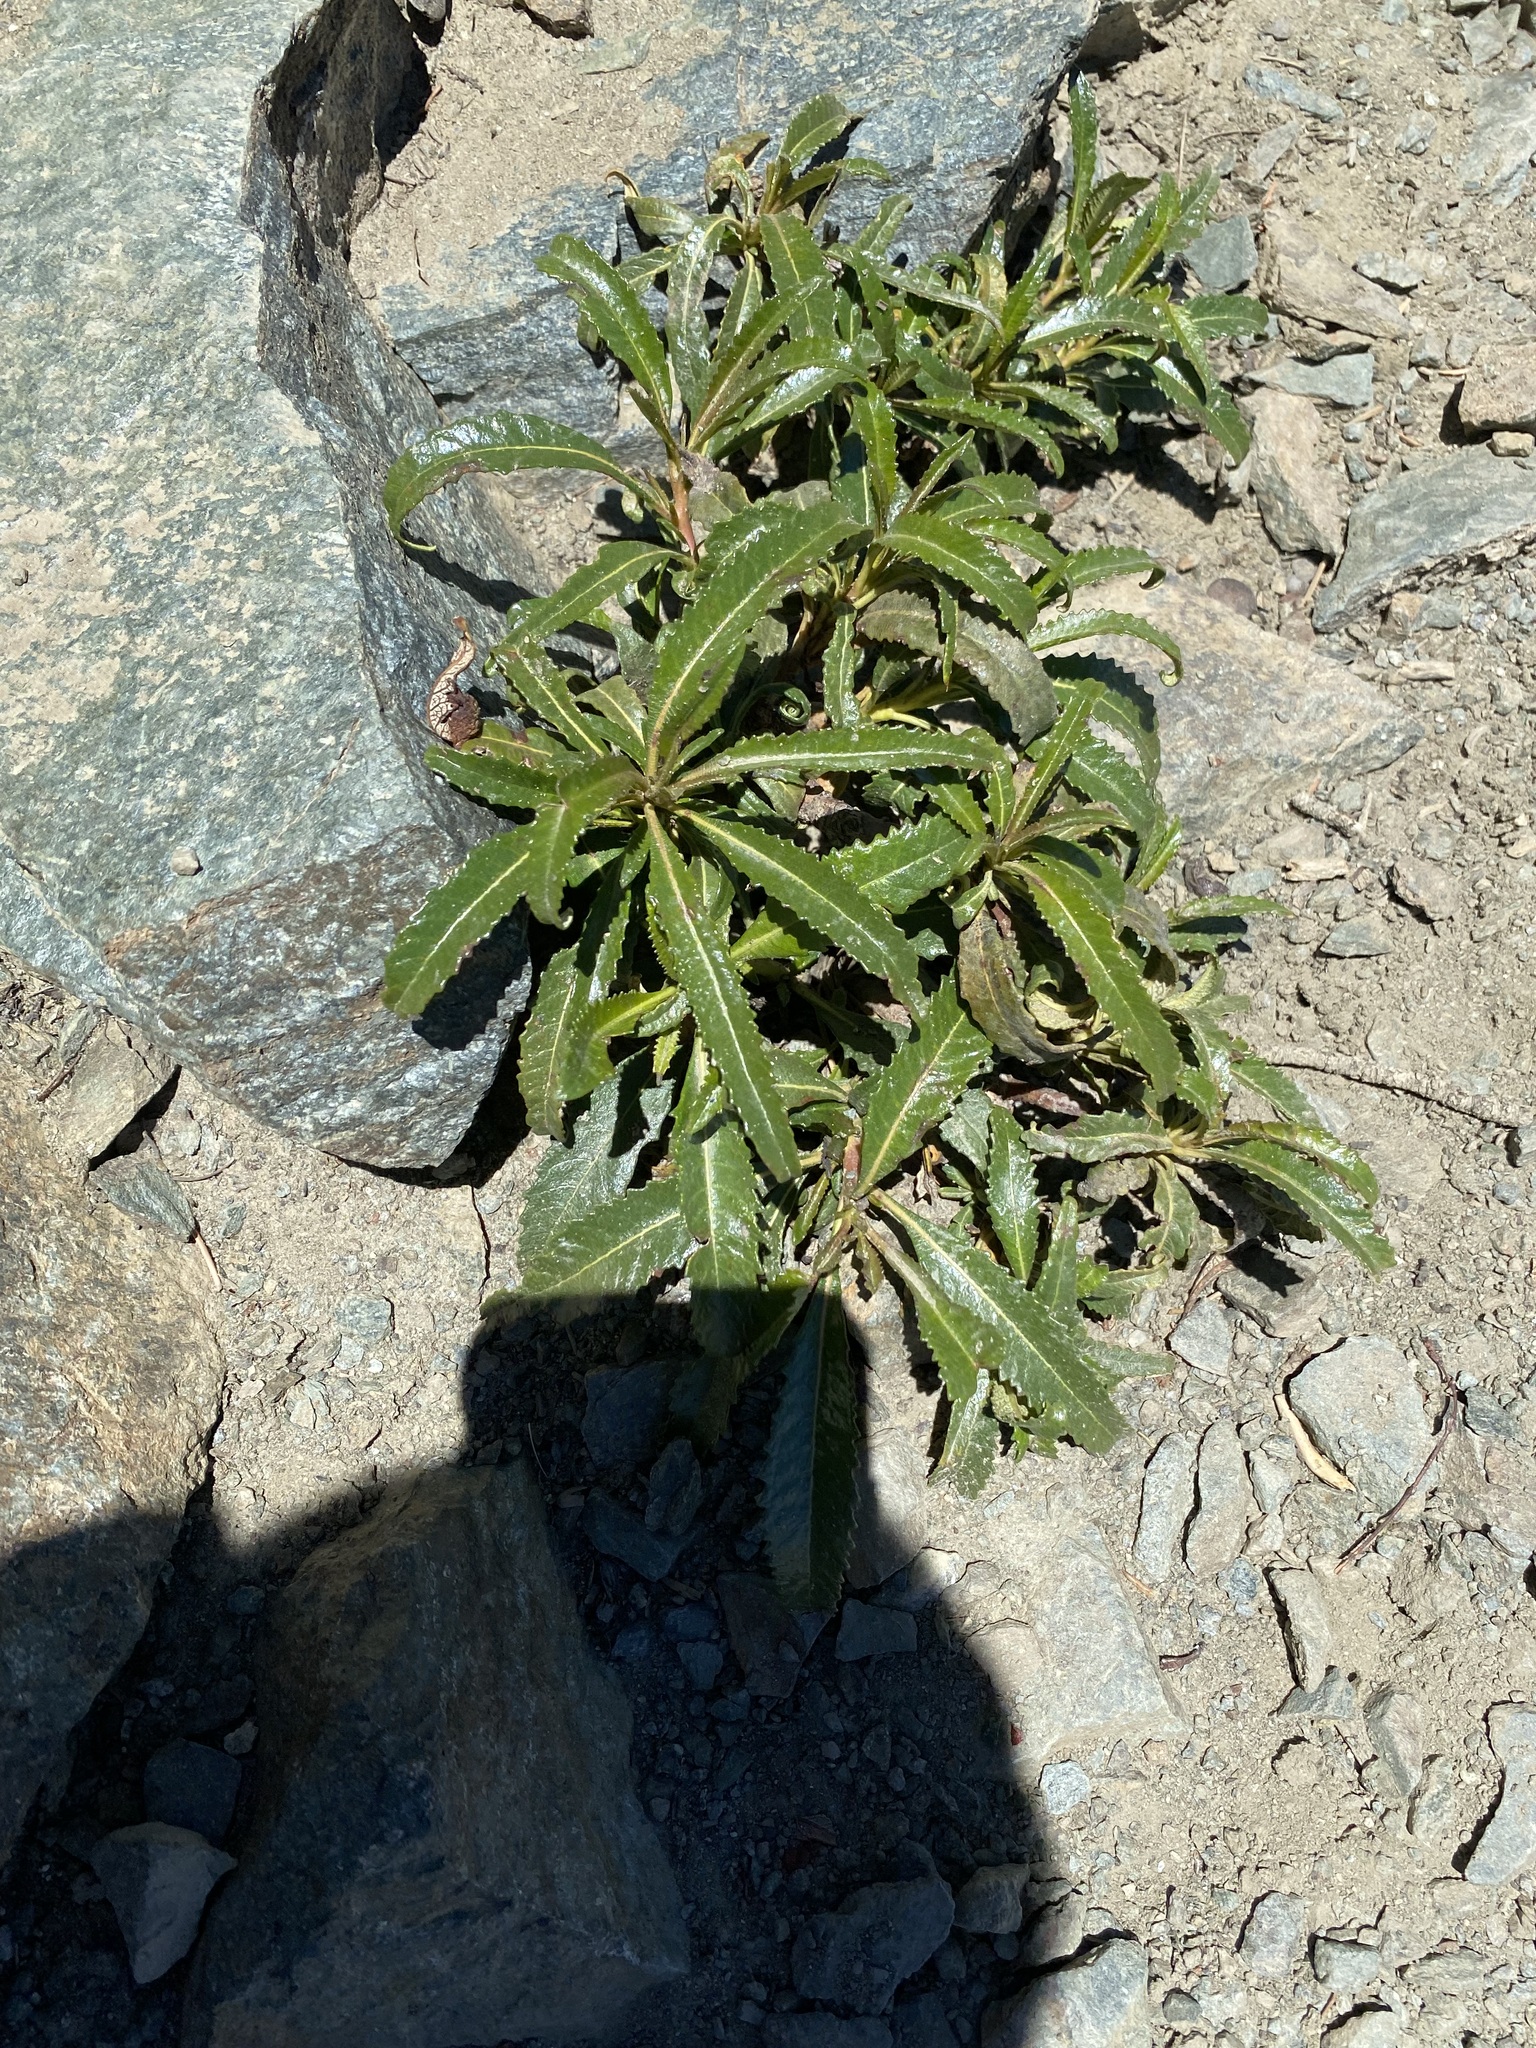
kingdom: Plantae
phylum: Tracheophyta
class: Magnoliopsida
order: Boraginales
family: Namaceae
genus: Eriodictyon
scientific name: Eriodictyon trichocalyx
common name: Hairy yerba-santa
